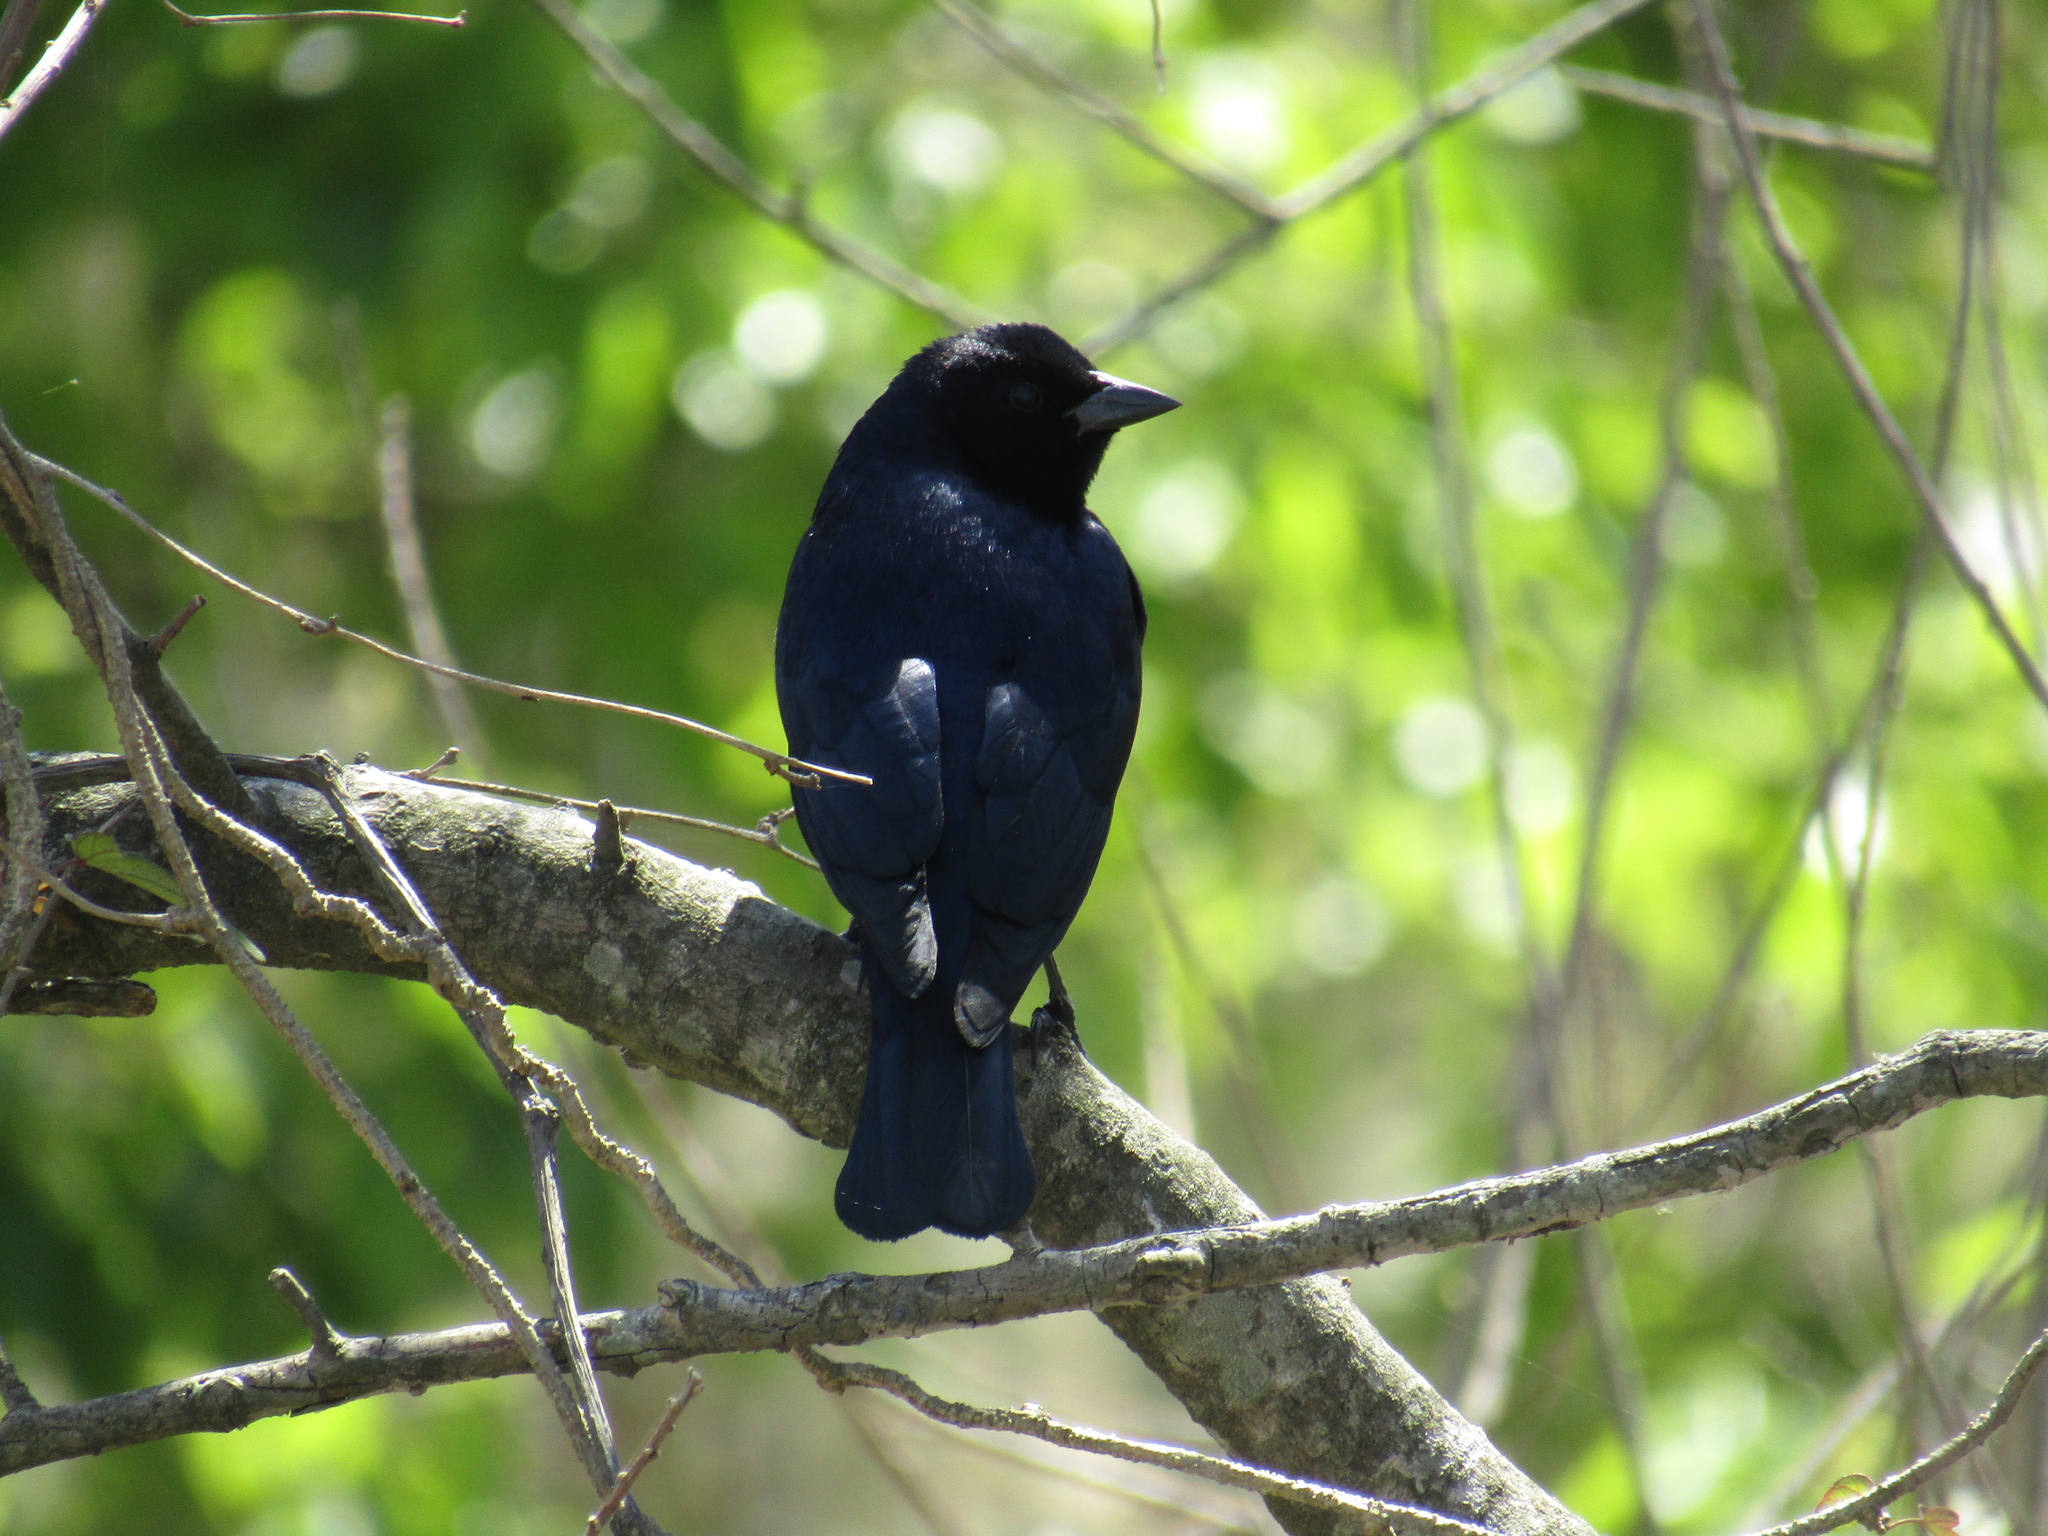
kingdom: Animalia
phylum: Chordata
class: Aves
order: Passeriformes
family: Icteridae
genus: Molothrus
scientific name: Molothrus bonariensis
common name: Shiny cowbird
